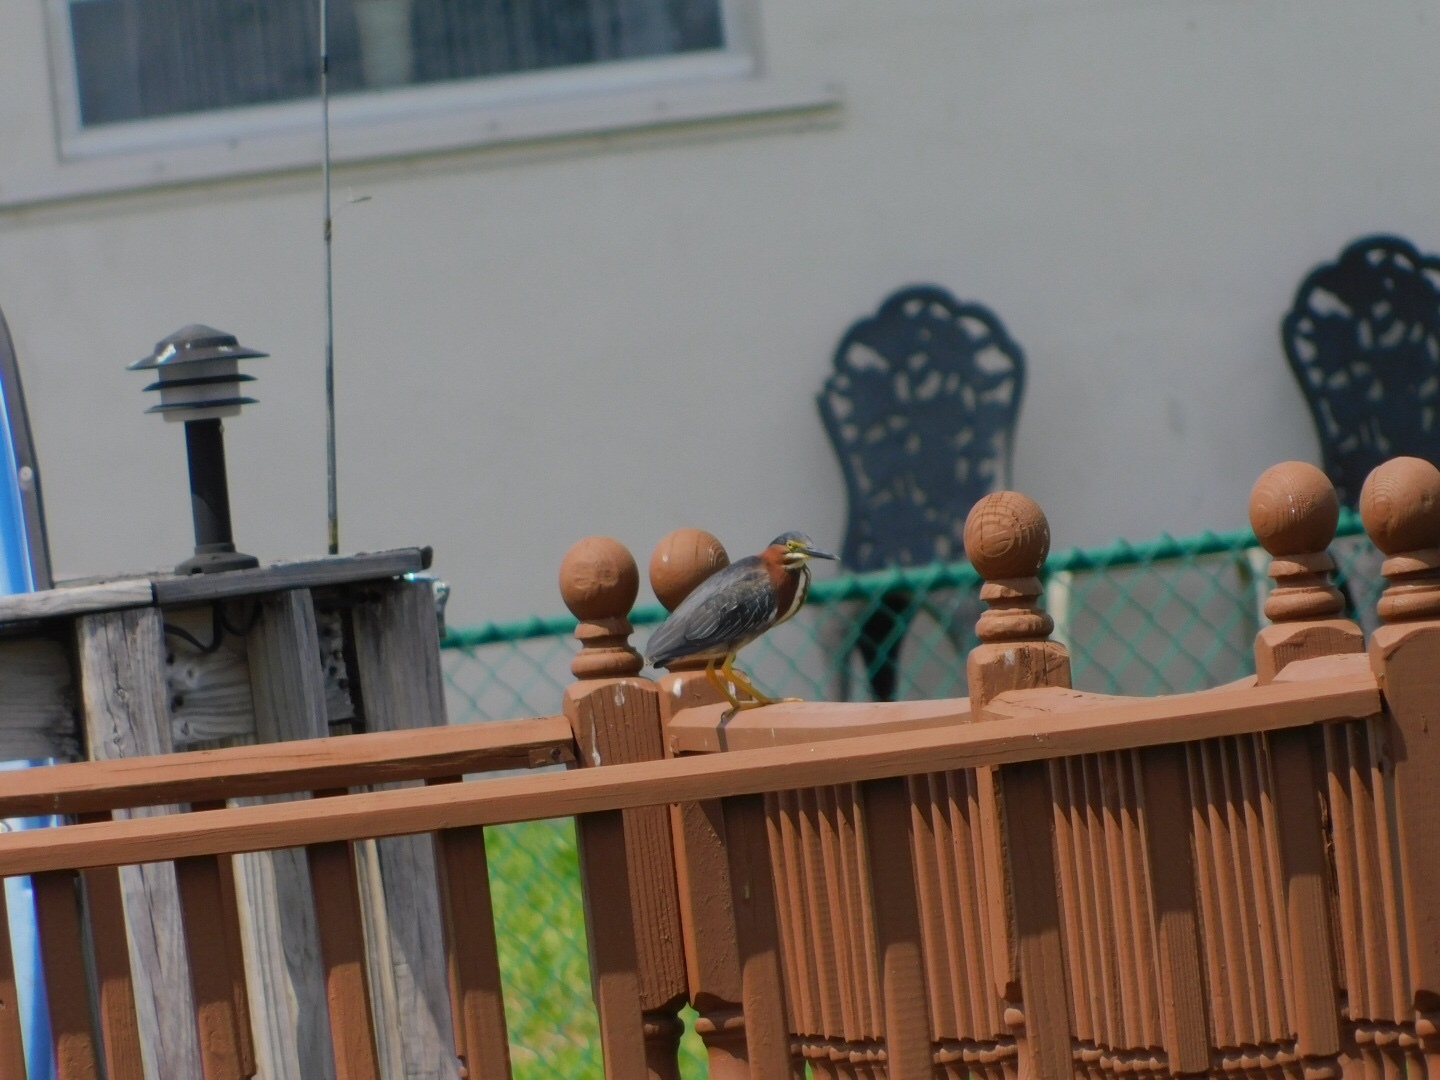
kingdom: Animalia
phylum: Chordata
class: Aves
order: Pelecaniformes
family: Ardeidae
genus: Butorides
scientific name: Butorides virescens
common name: Green heron
